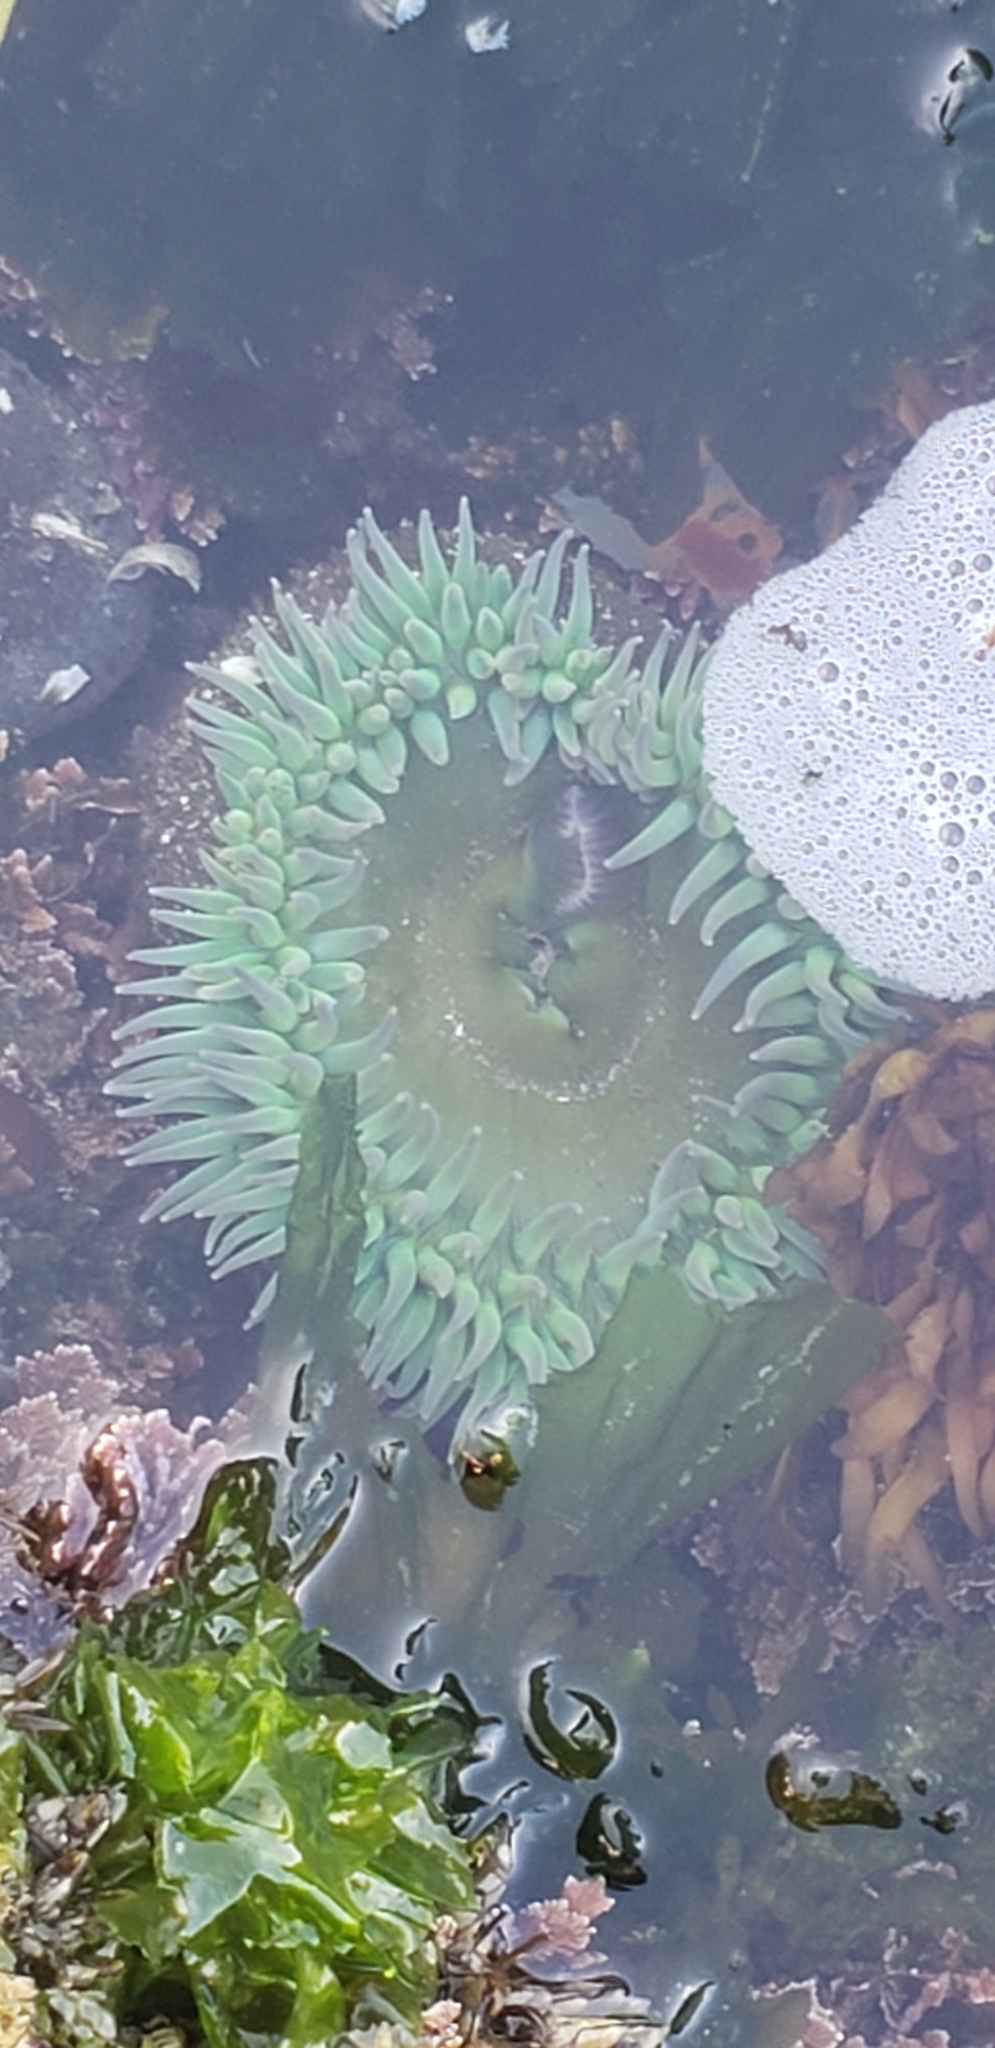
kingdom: Animalia
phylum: Cnidaria
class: Anthozoa
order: Actiniaria
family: Actiniidae
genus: Anthopleura
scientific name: Anthopleura xanthogrammica
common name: Giant green anemone
